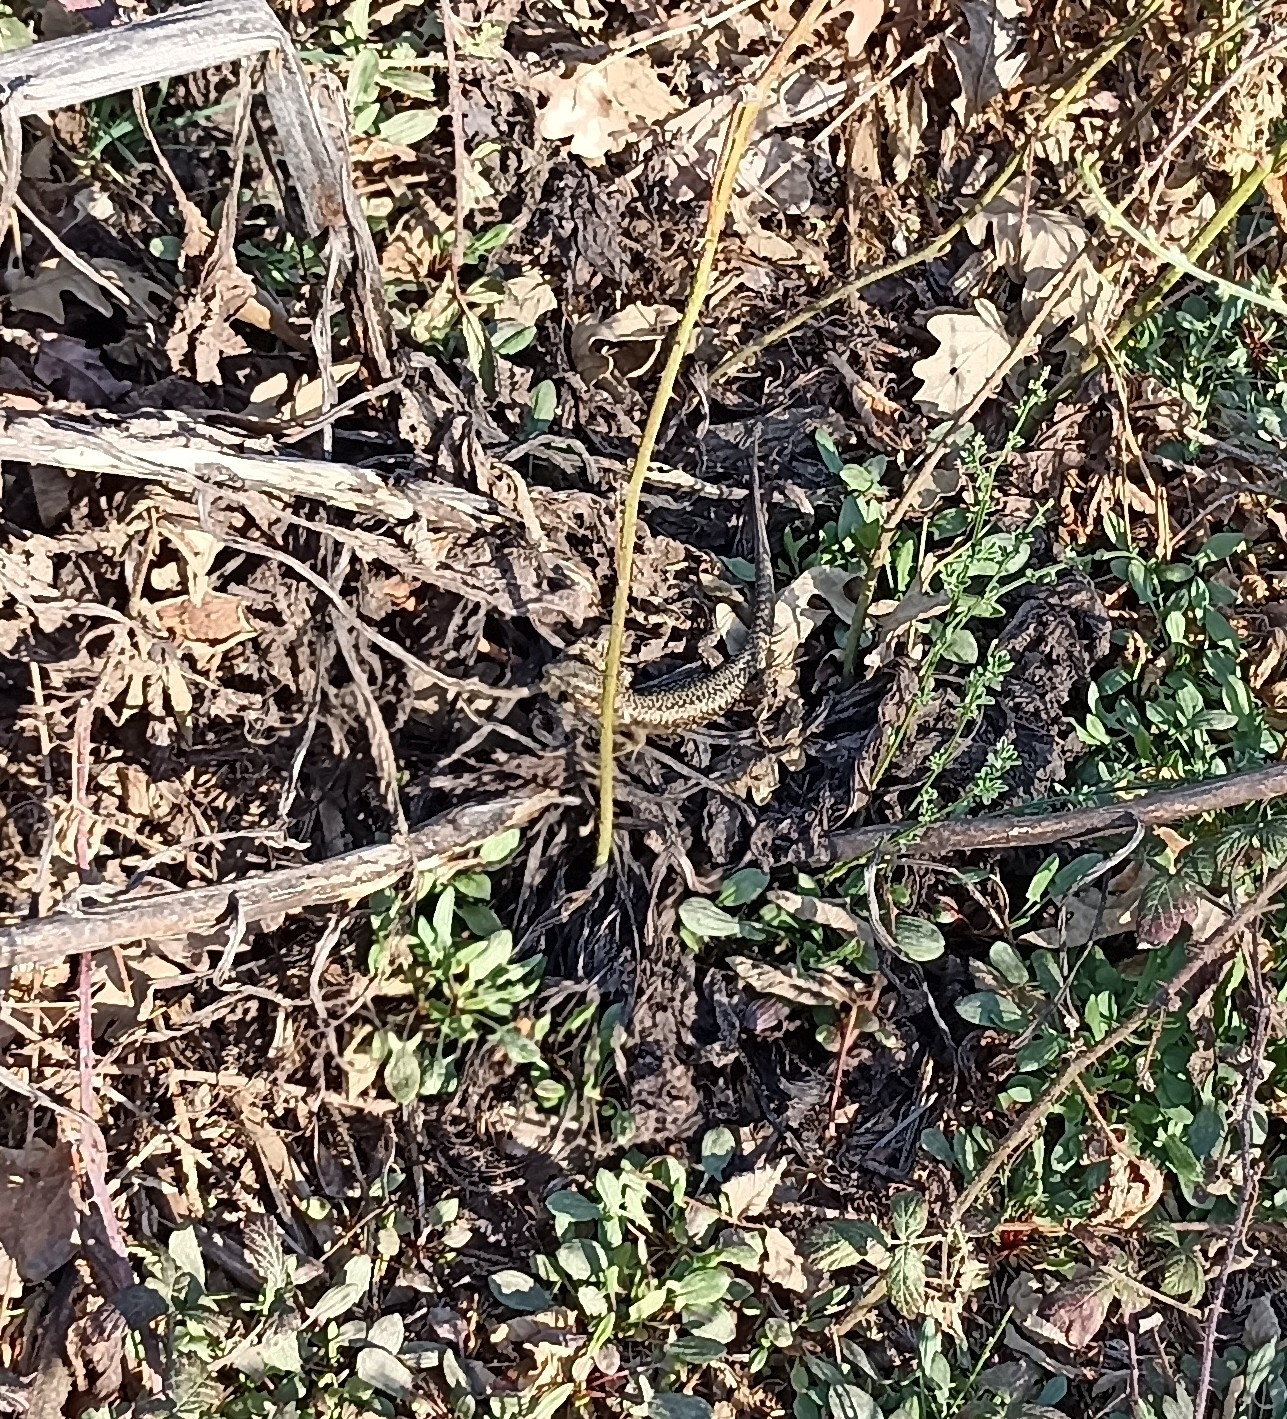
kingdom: Animalia
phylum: Chordata
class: Squamata
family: Lacertidae
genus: Podarcis
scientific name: Podarcis muralis
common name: Common wall lizard
